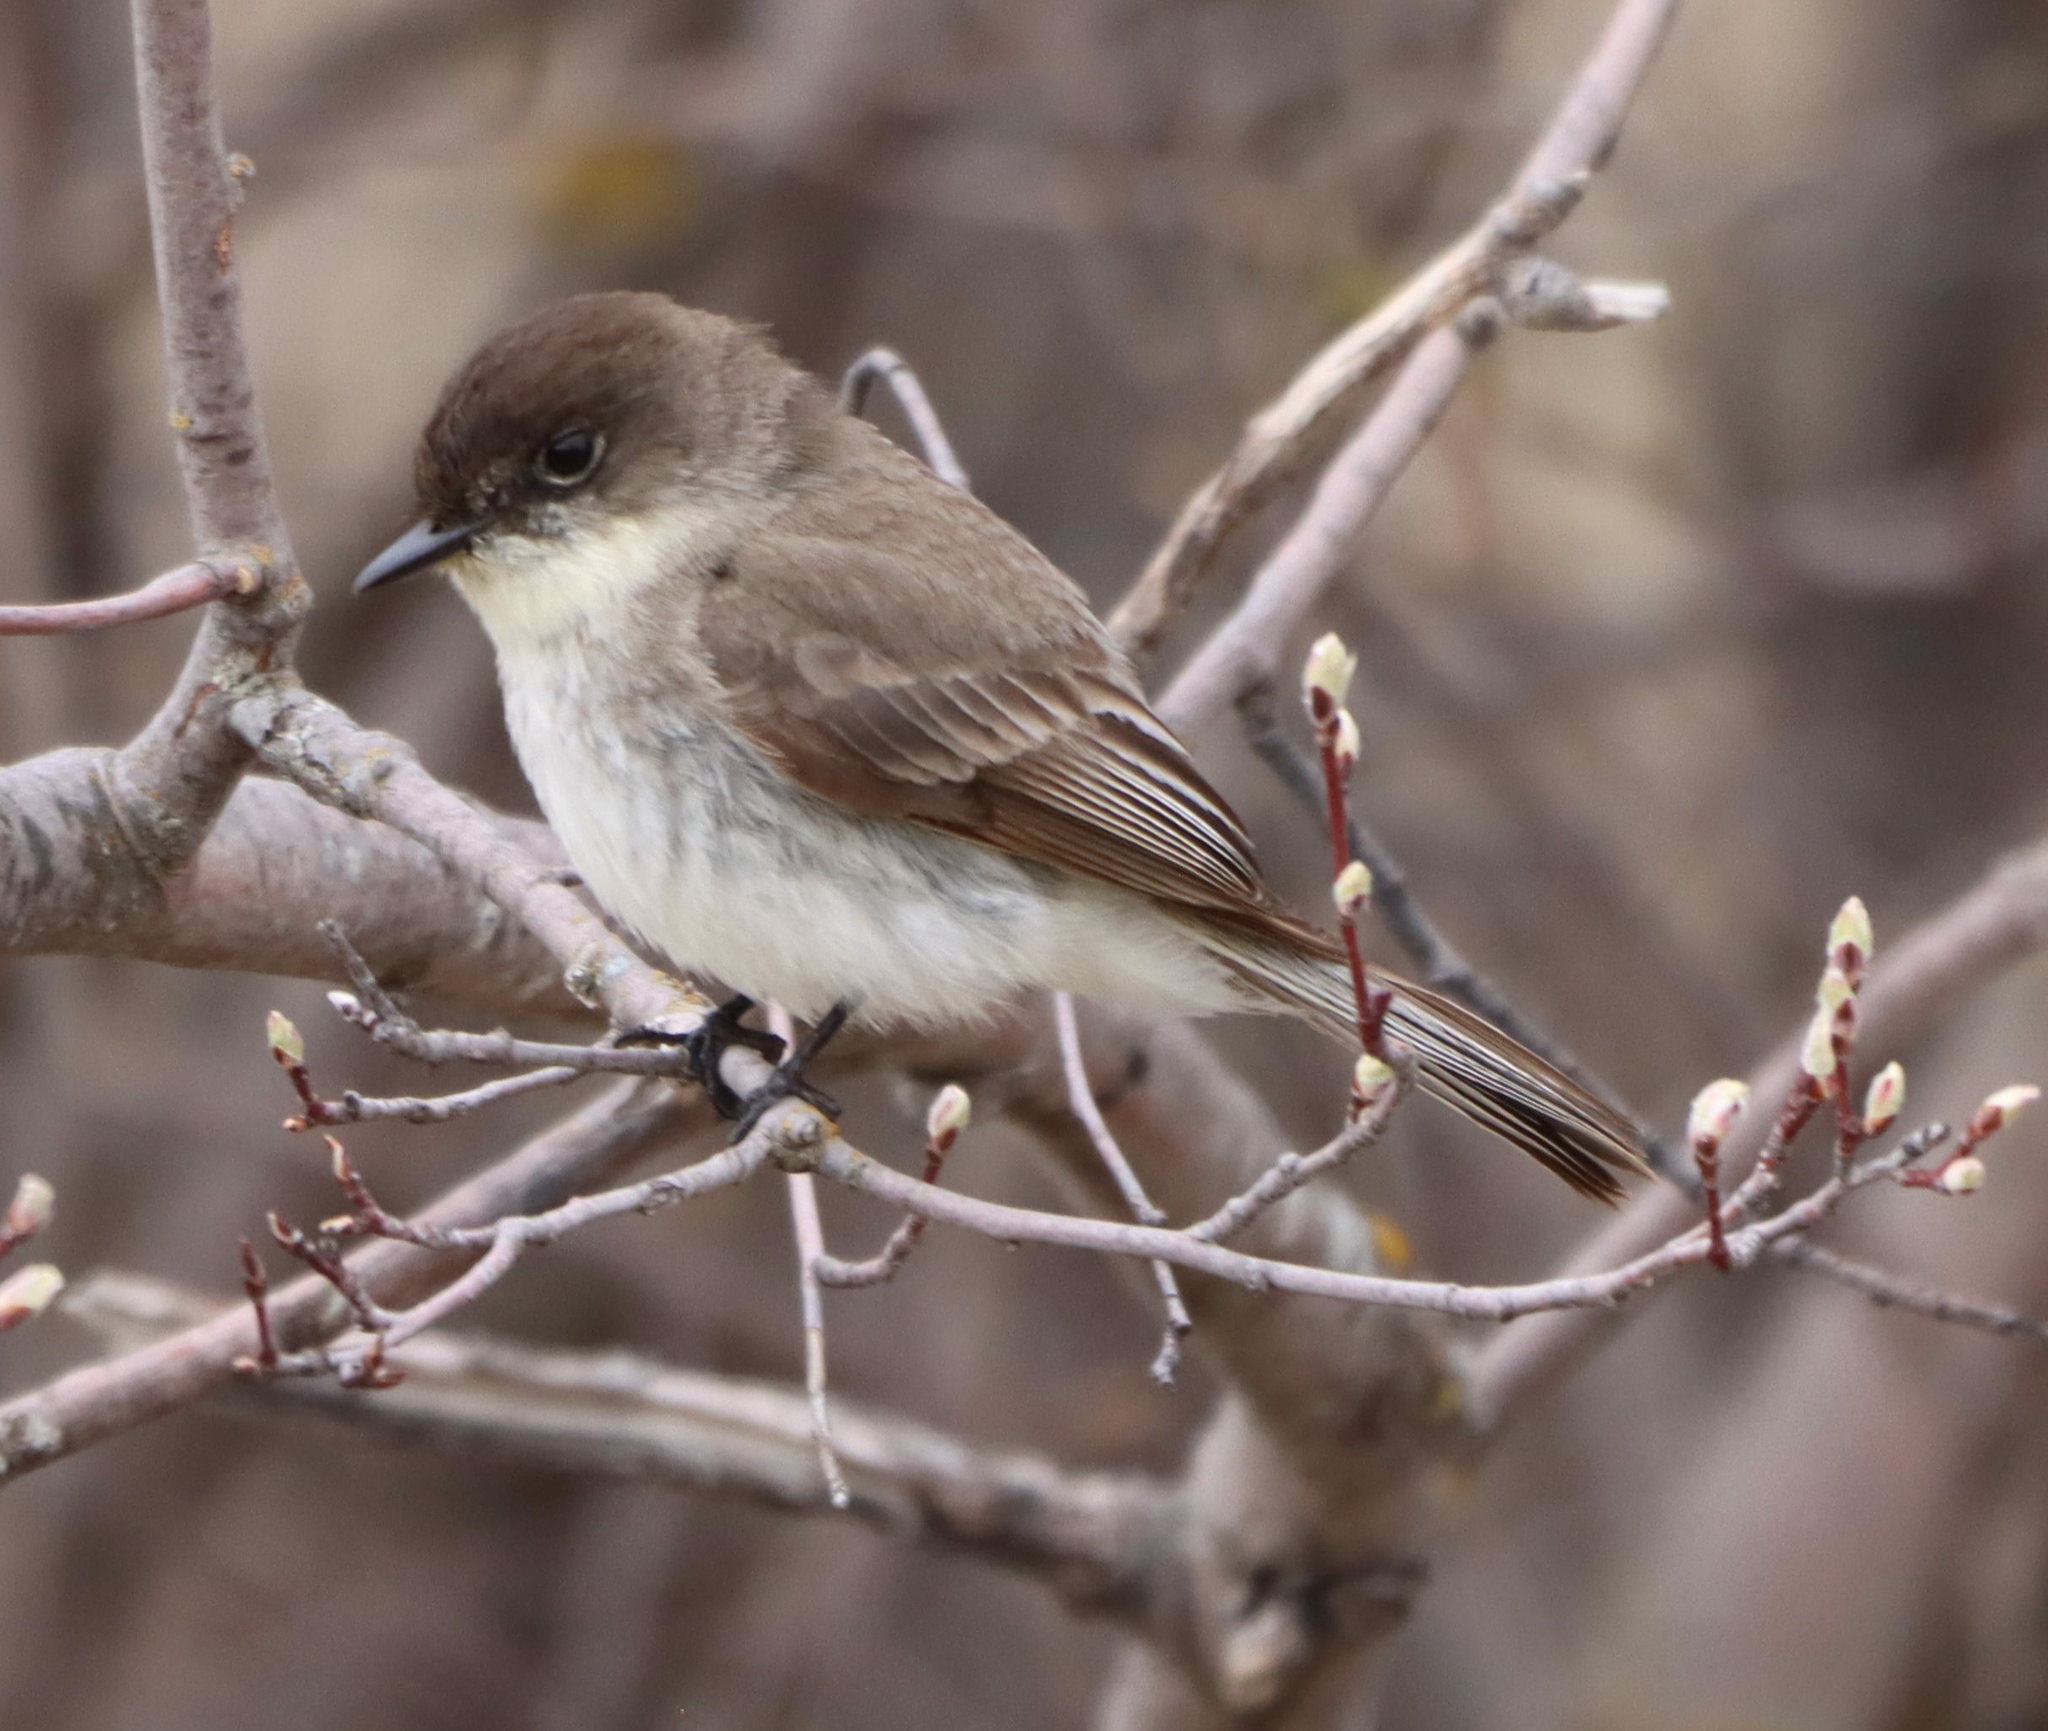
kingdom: Animalia
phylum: Chordata
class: Aves
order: Passeriformes
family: Tyrannidae
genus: Sayornis
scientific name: Sayornis phoebe
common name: Eastern phoebe
